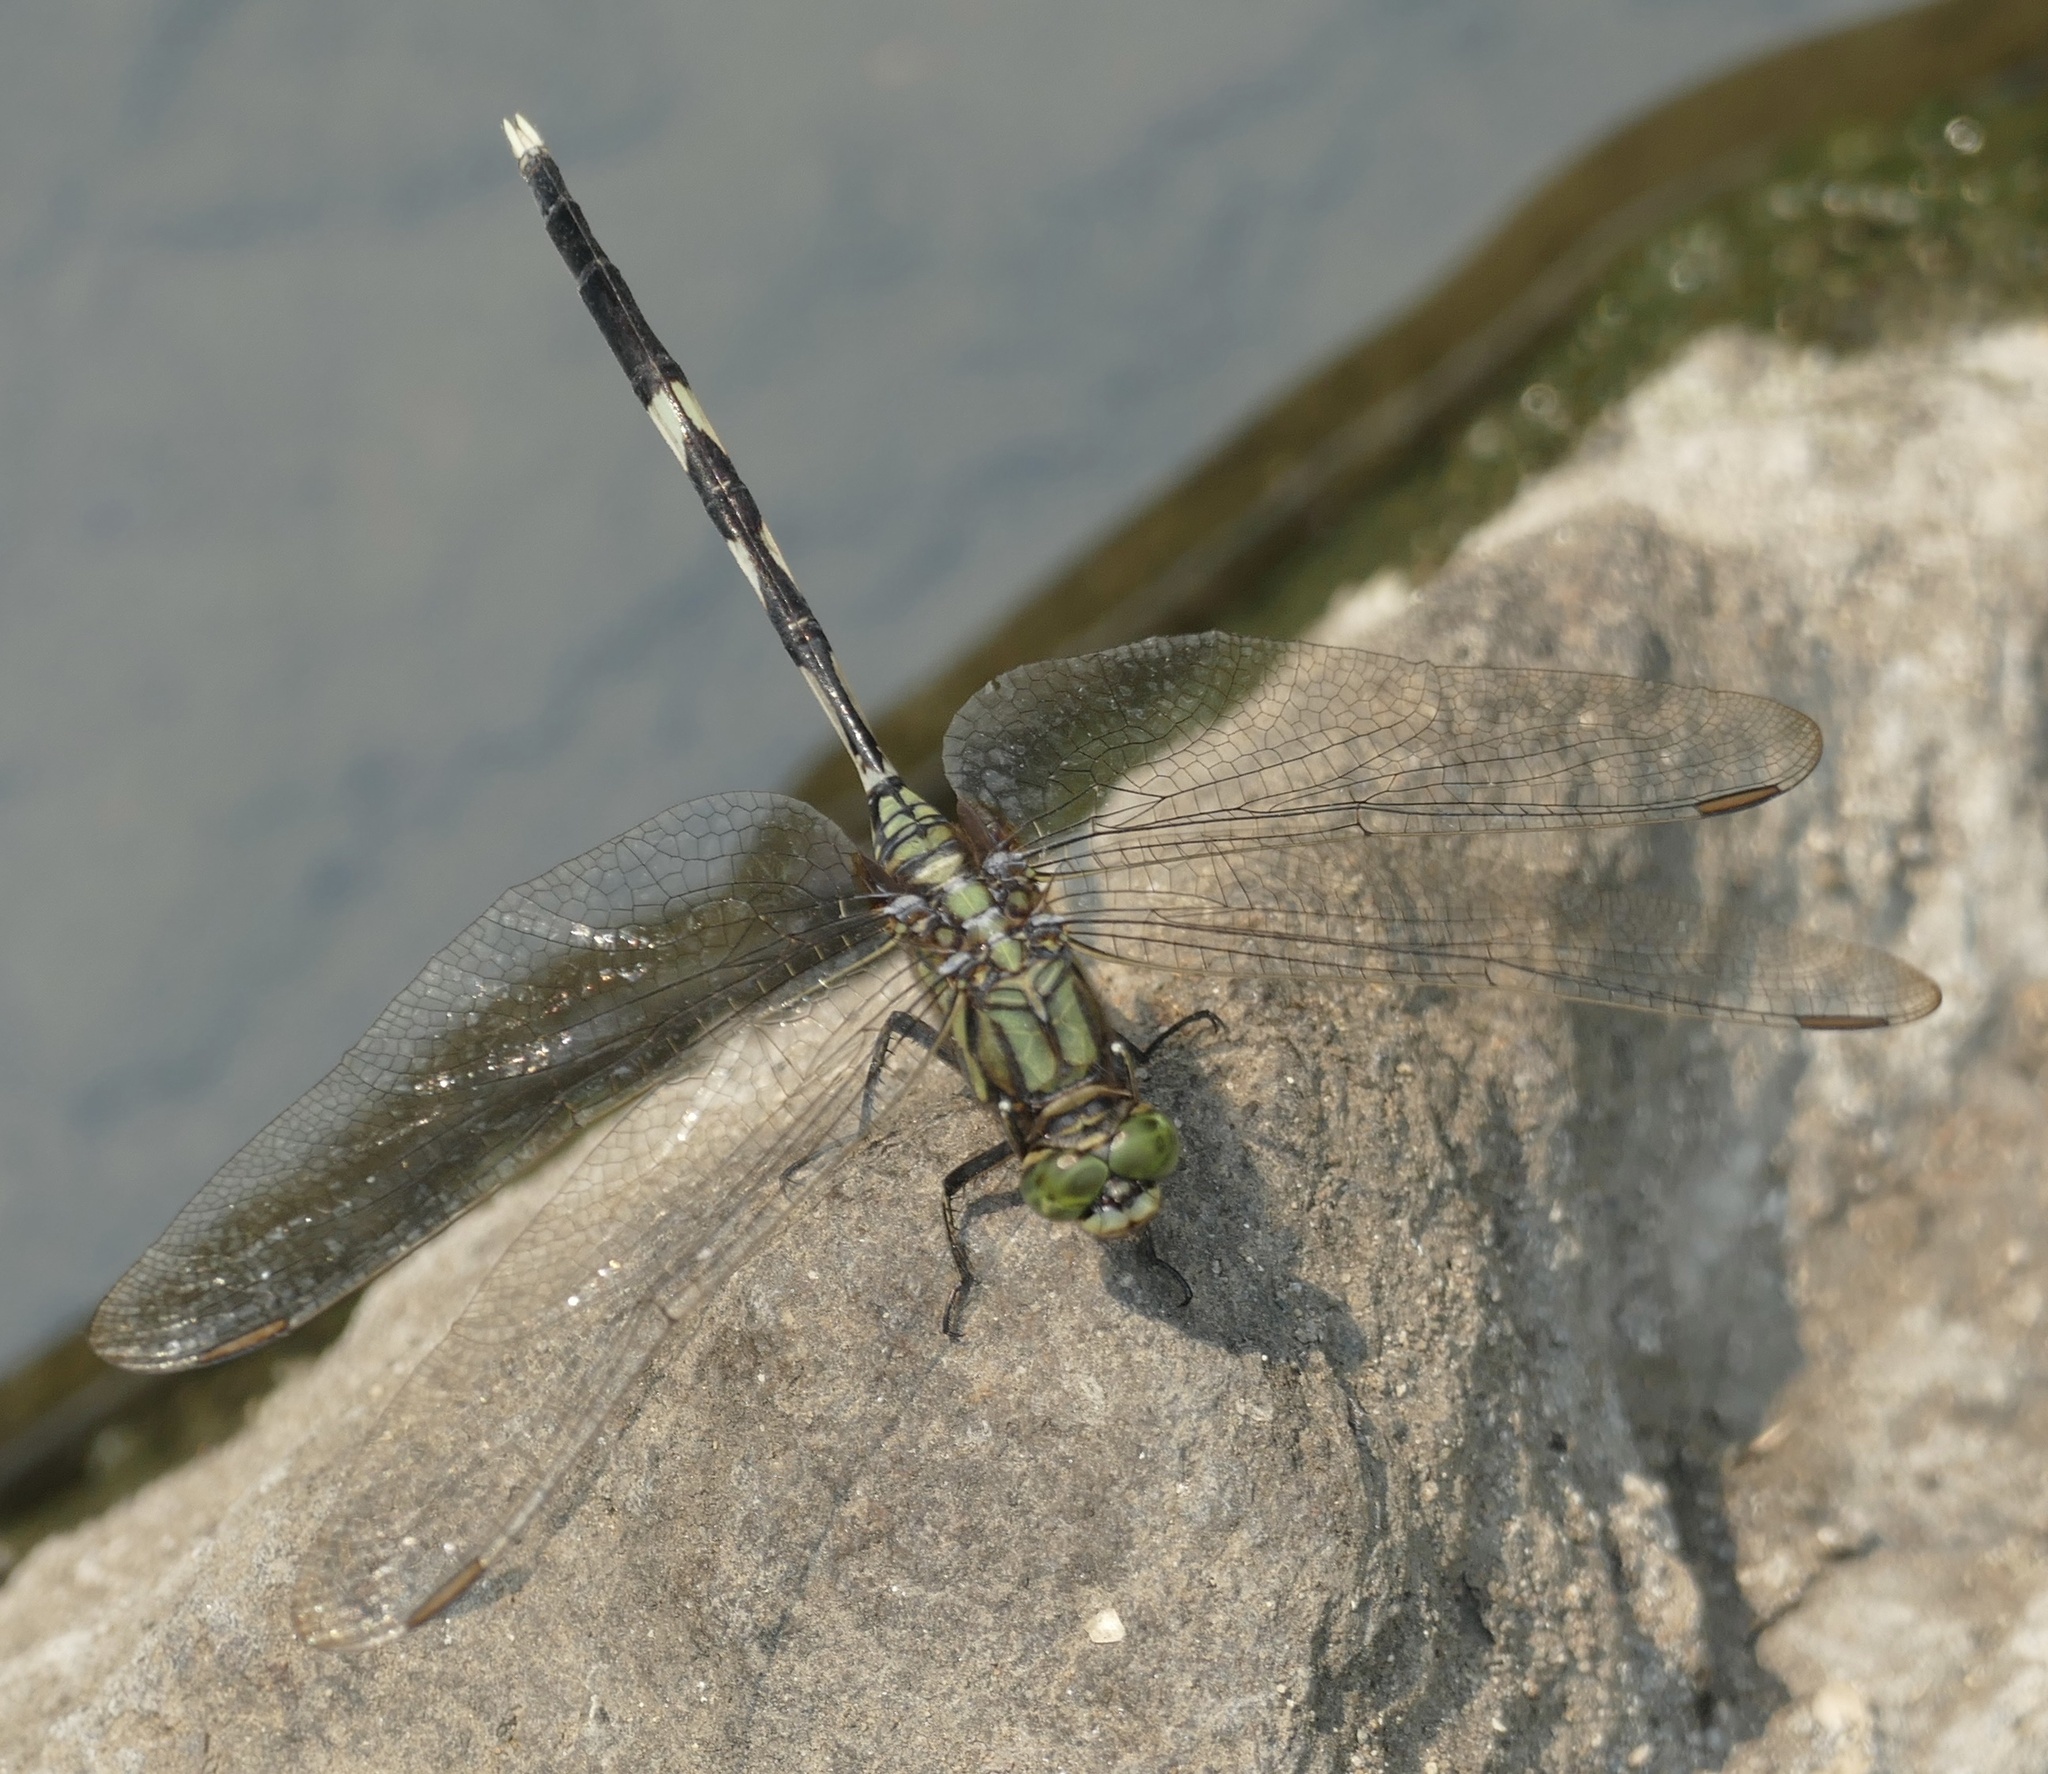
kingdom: Animalia
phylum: Arthropoda
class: Insecta
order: Odonata
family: Libellulidae
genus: Orthetrum
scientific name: Orthetrum sabina
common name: Slender skimmer
